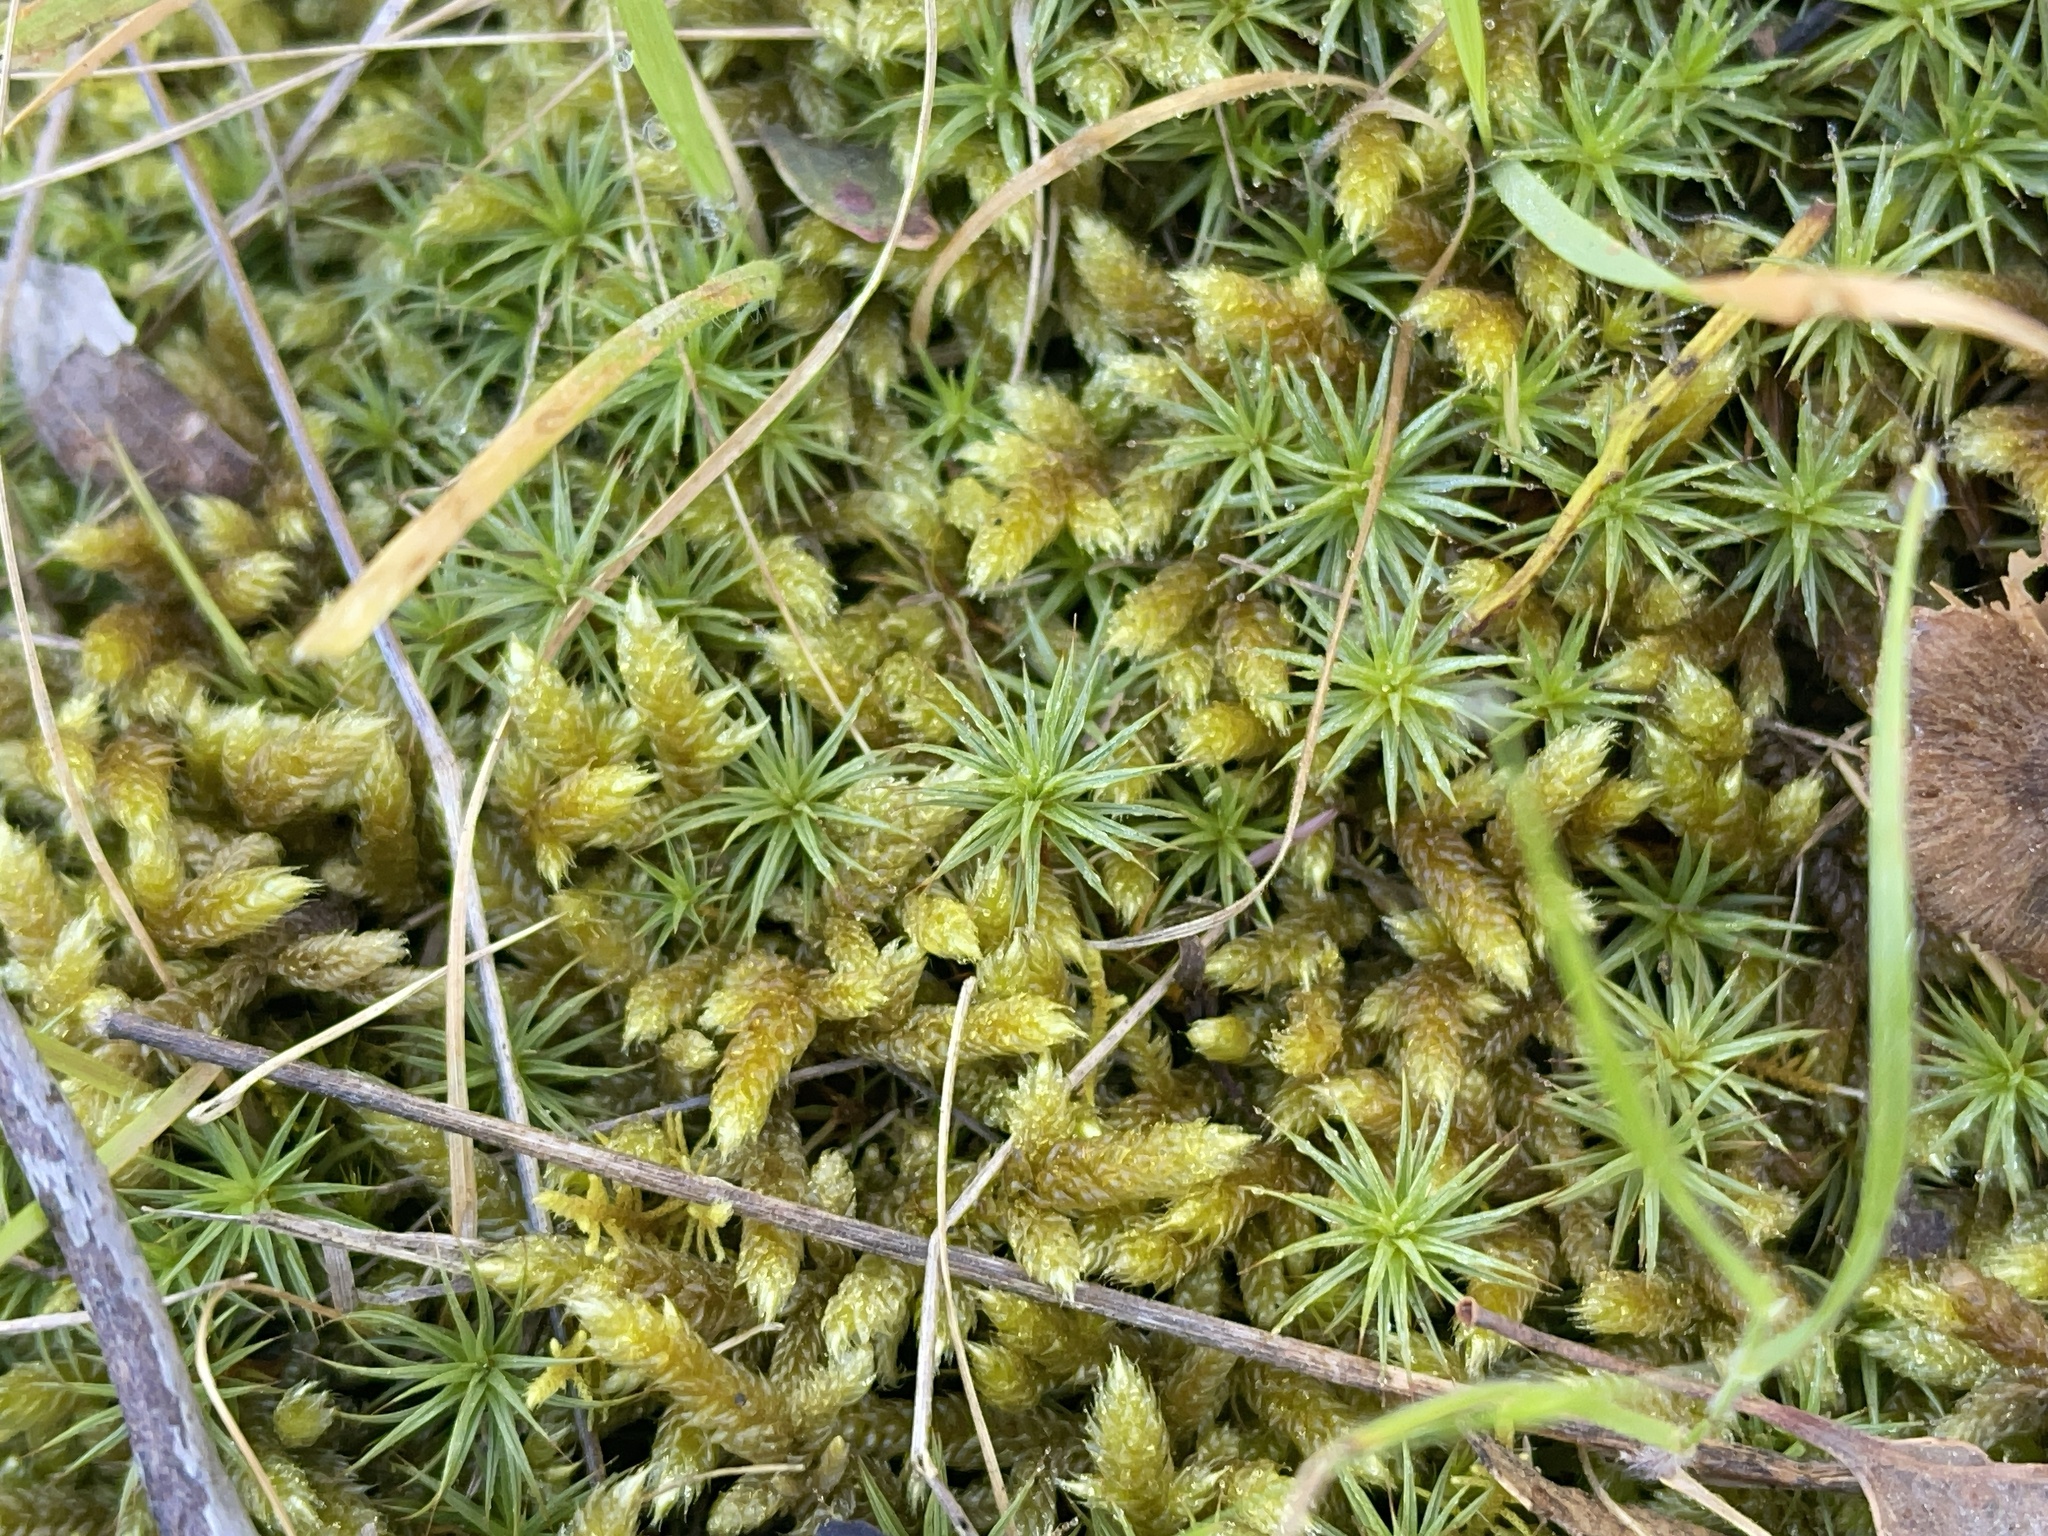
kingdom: Plantae
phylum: Bryophyta
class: Bryopsida
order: Hypnales
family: Hypnaceae
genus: Hypnum
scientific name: Hypnum cupressiforme
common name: Cypress-leaved plait-moss
